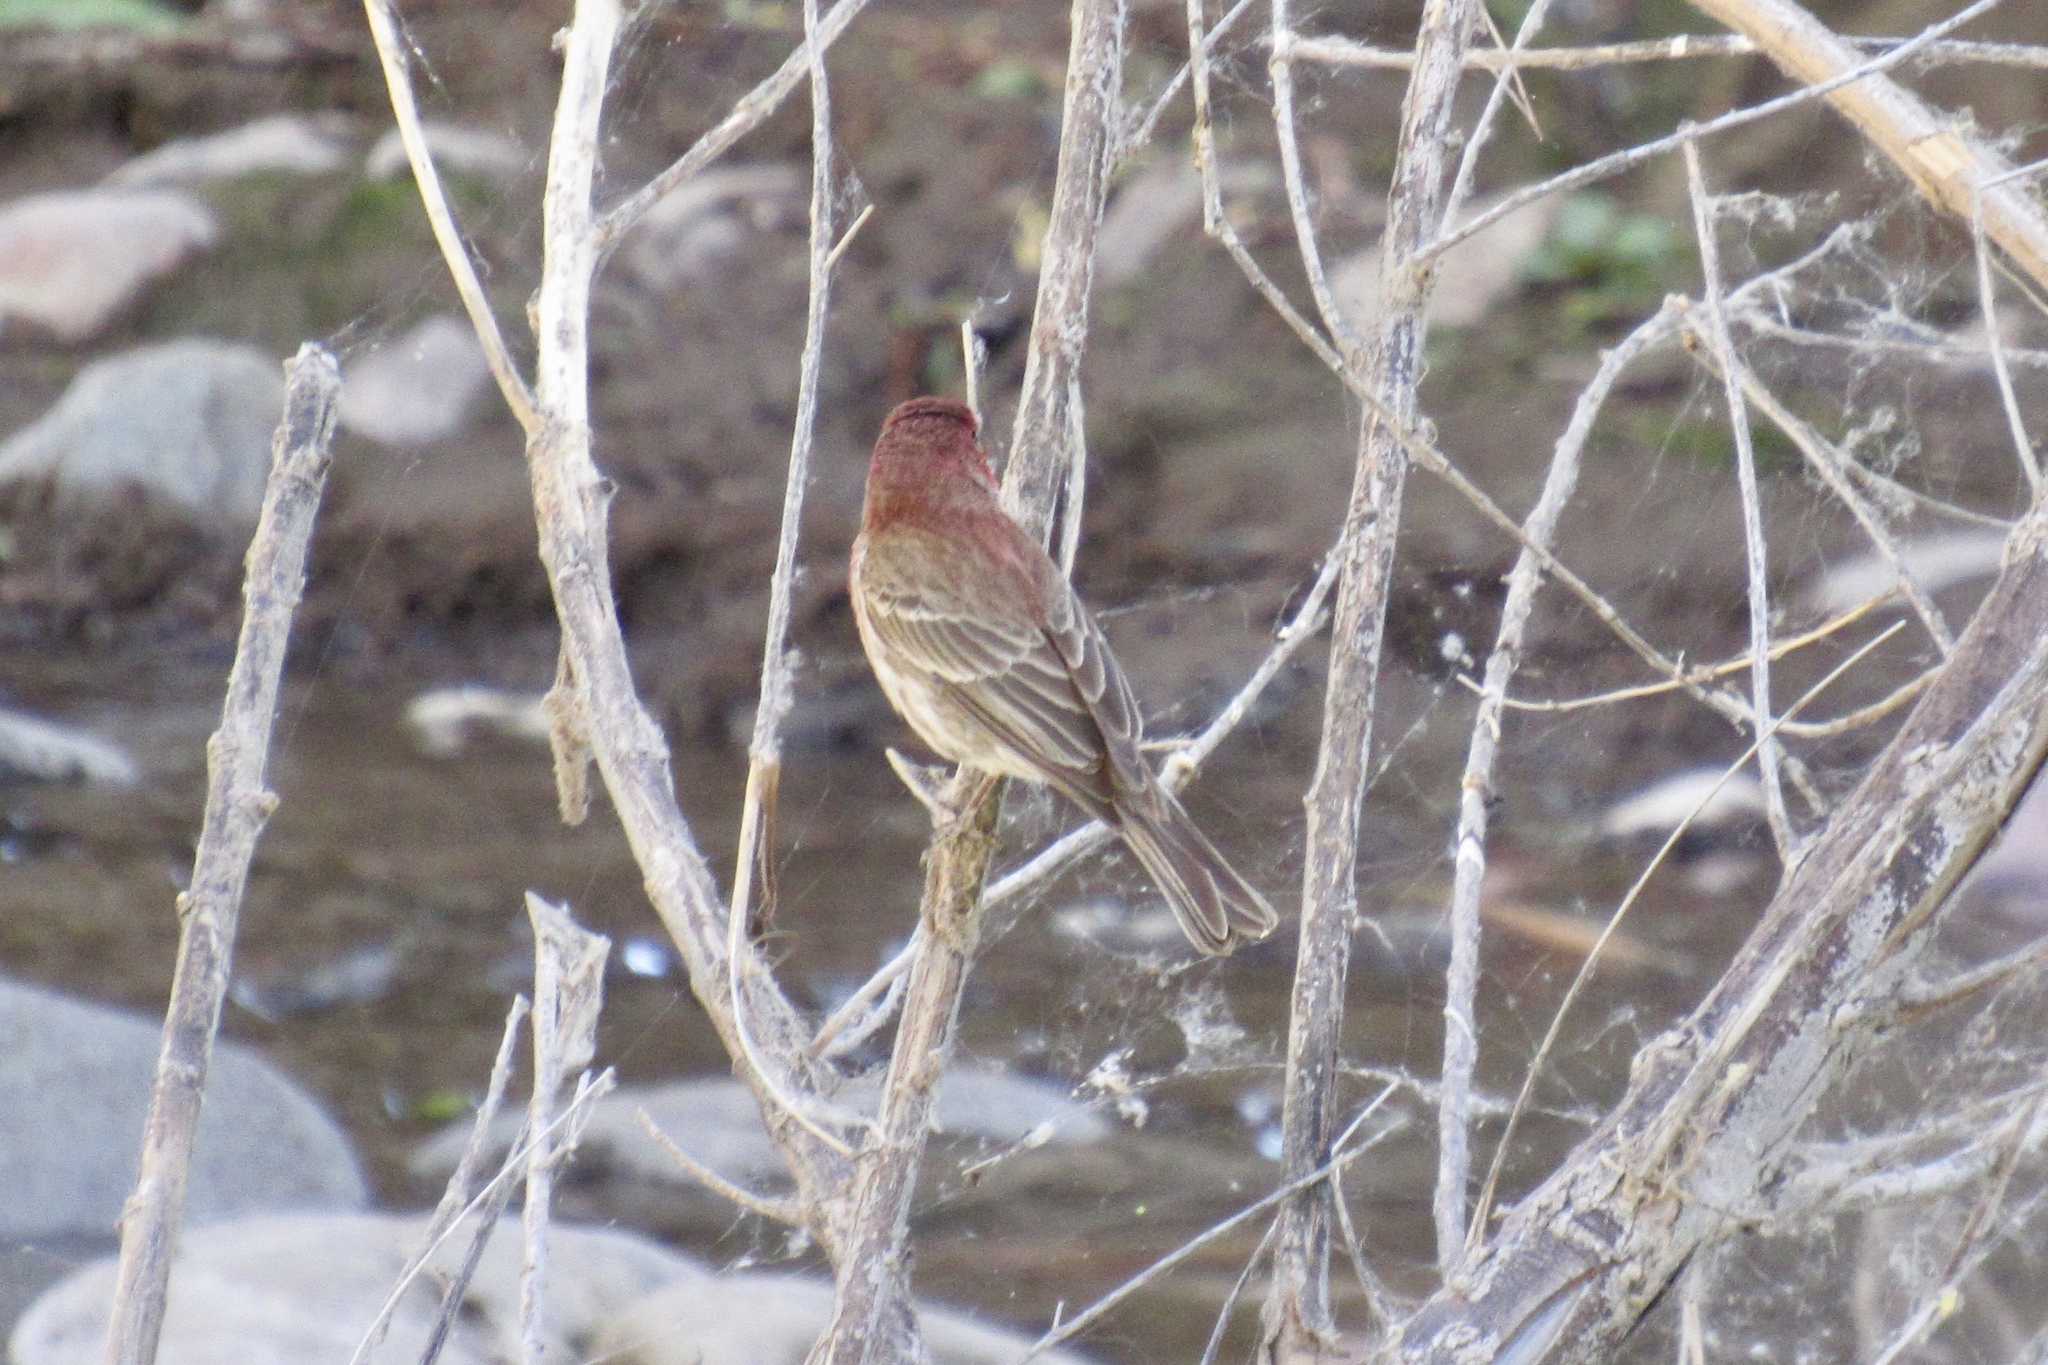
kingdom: Animalia
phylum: Chordata
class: Aves
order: Passeriformes
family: Fringillidae
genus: Haemorhous
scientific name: Haemorhous mexicanus
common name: House finch
